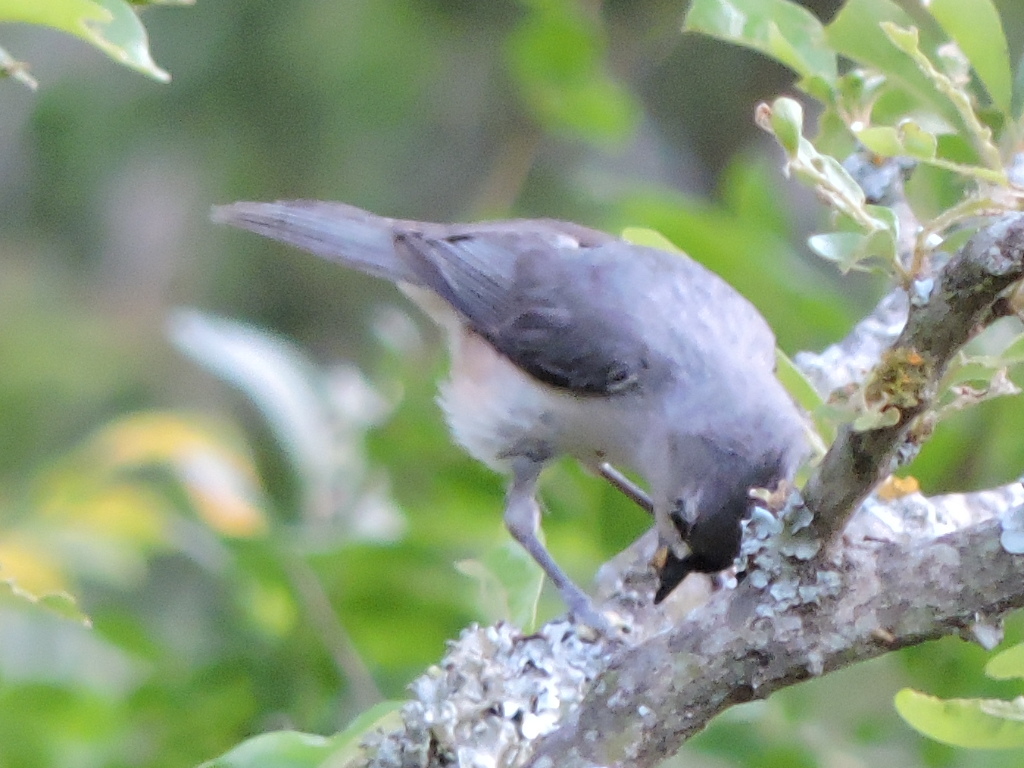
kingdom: Animalia
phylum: Chordata
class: Aves
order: Passeriformes
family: Paridae
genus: Baeolophus
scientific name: Baeolophus bicolor
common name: Tufted titmouse
